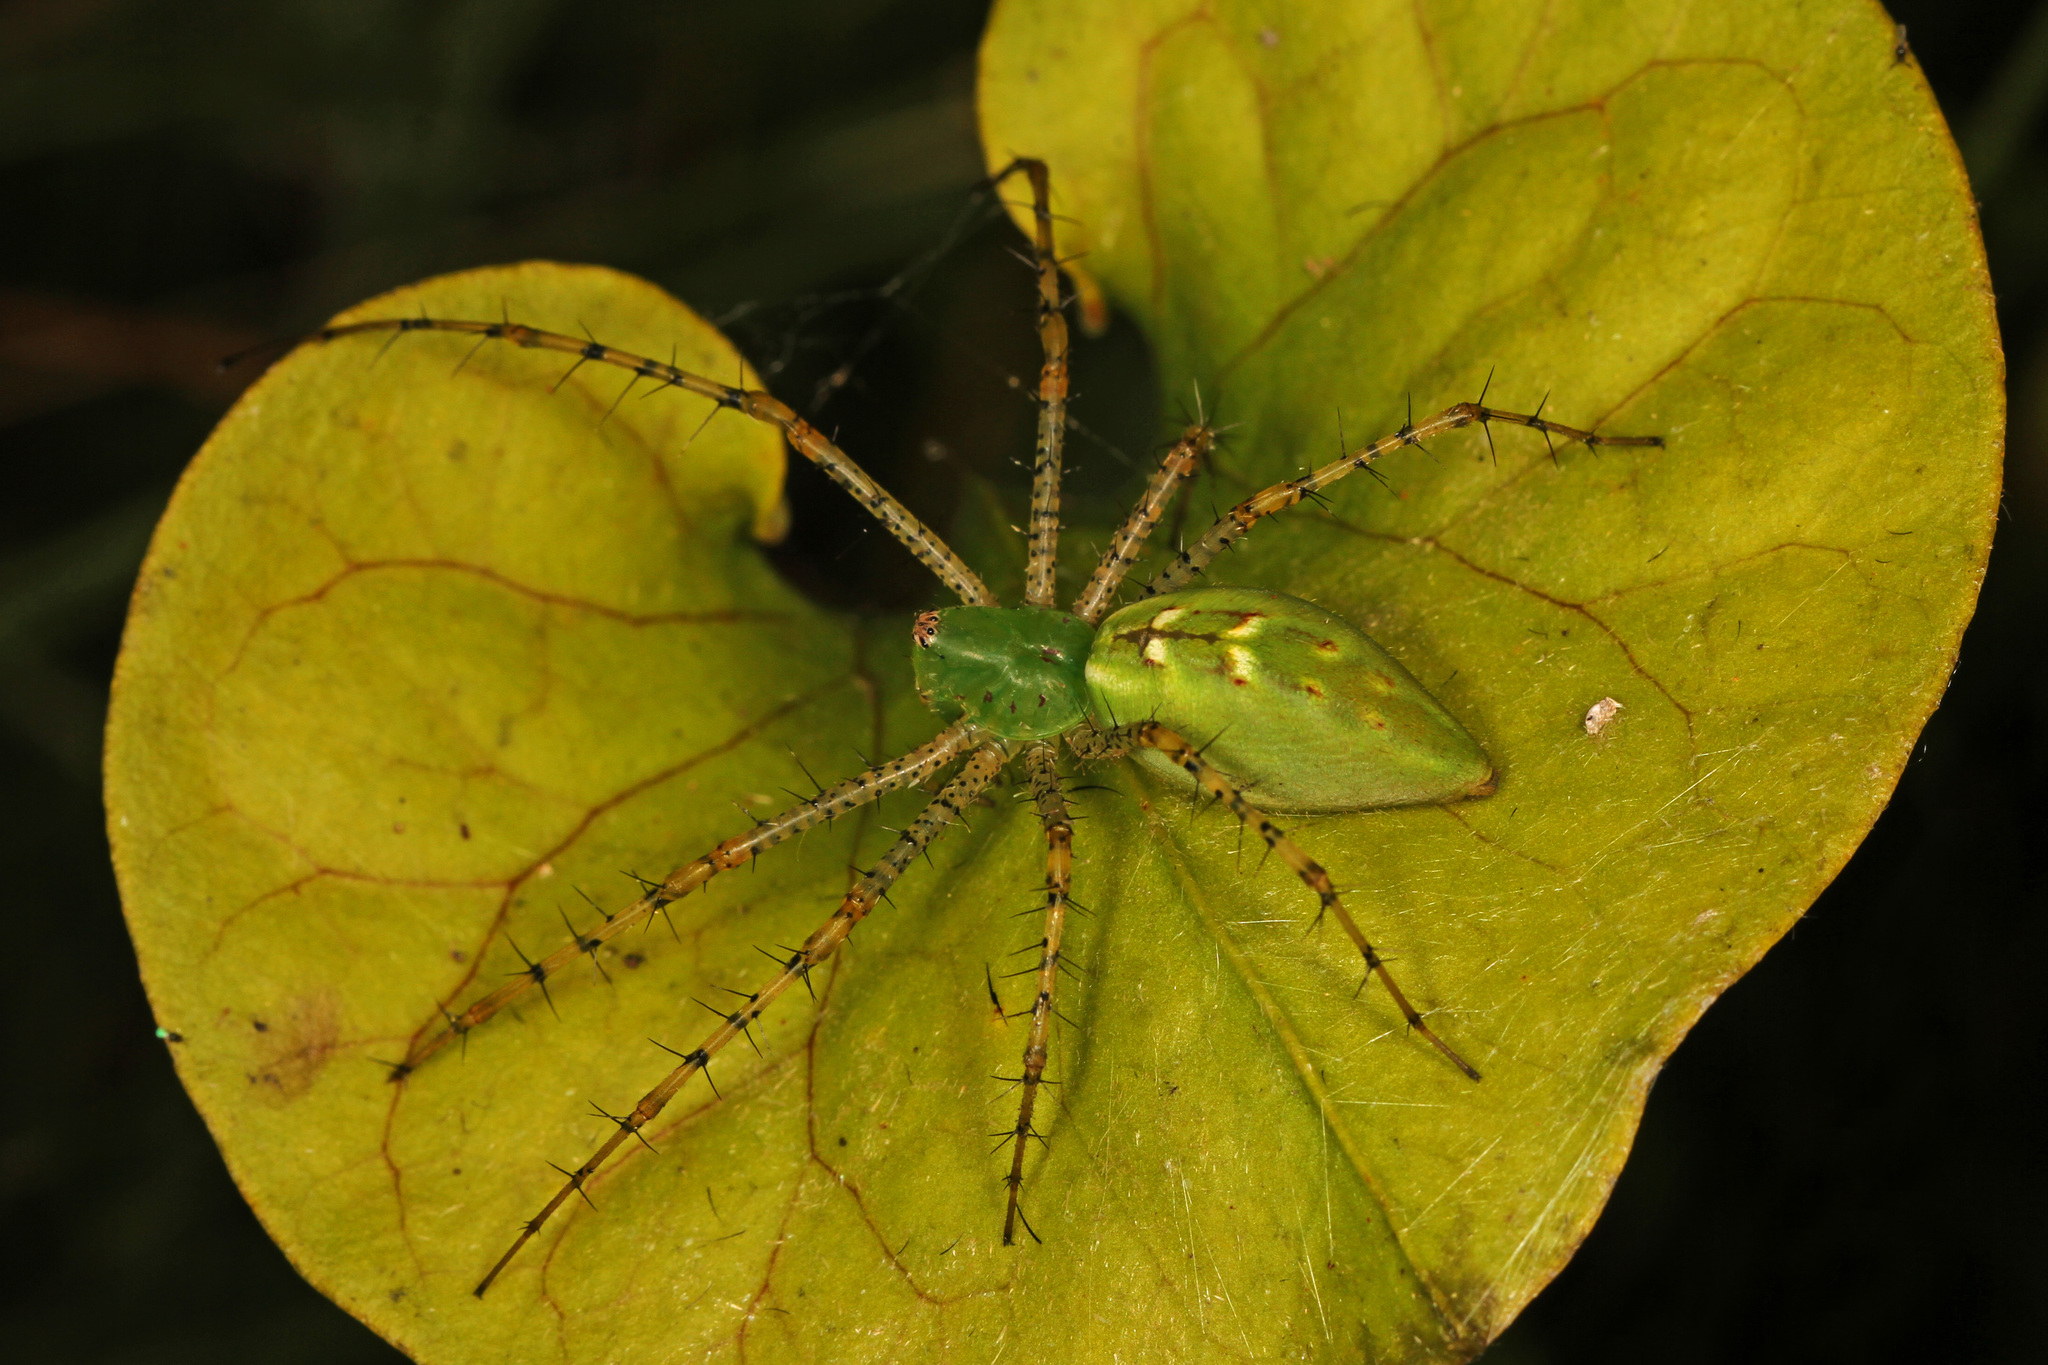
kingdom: Animalia
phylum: Arthropoda
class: Arachnida
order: Araneae
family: Oxyopidae
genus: Peucetia
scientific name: Peucetia viridans
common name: Lynx spiders
